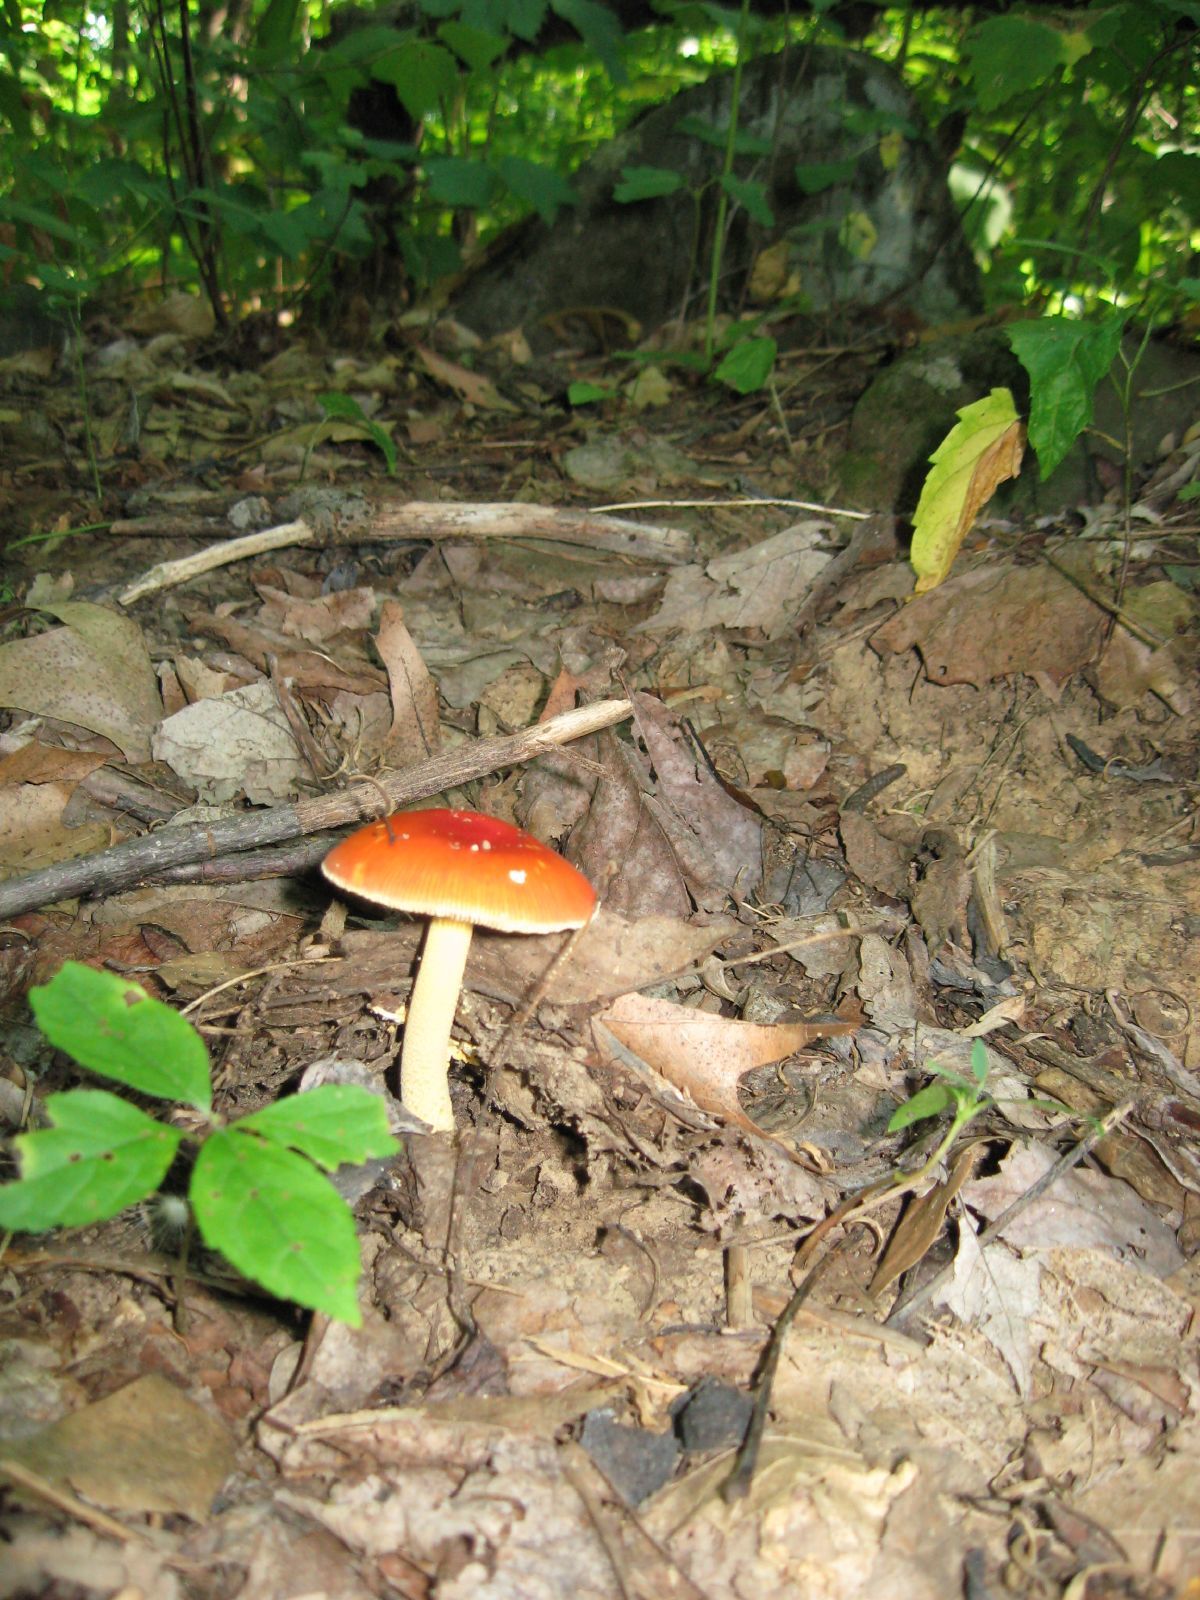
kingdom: Fungi
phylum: Basidiomycota
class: Agaricomycetes
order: Agaricales
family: Amanitaceae
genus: Amanita
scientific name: Amanita parcivolvata
